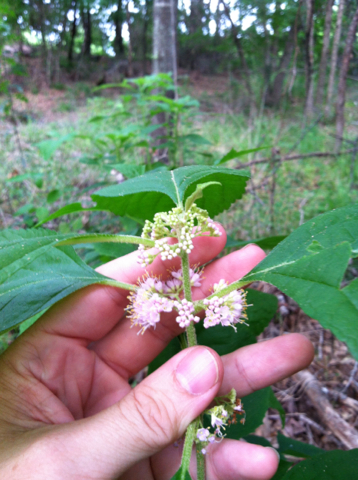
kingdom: Plantae
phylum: Tracheophyta
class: Magnoliopsida
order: Lamiales
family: Lamiaceae
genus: Callicarpa
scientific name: Callicarpa americana
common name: American beautyberry
